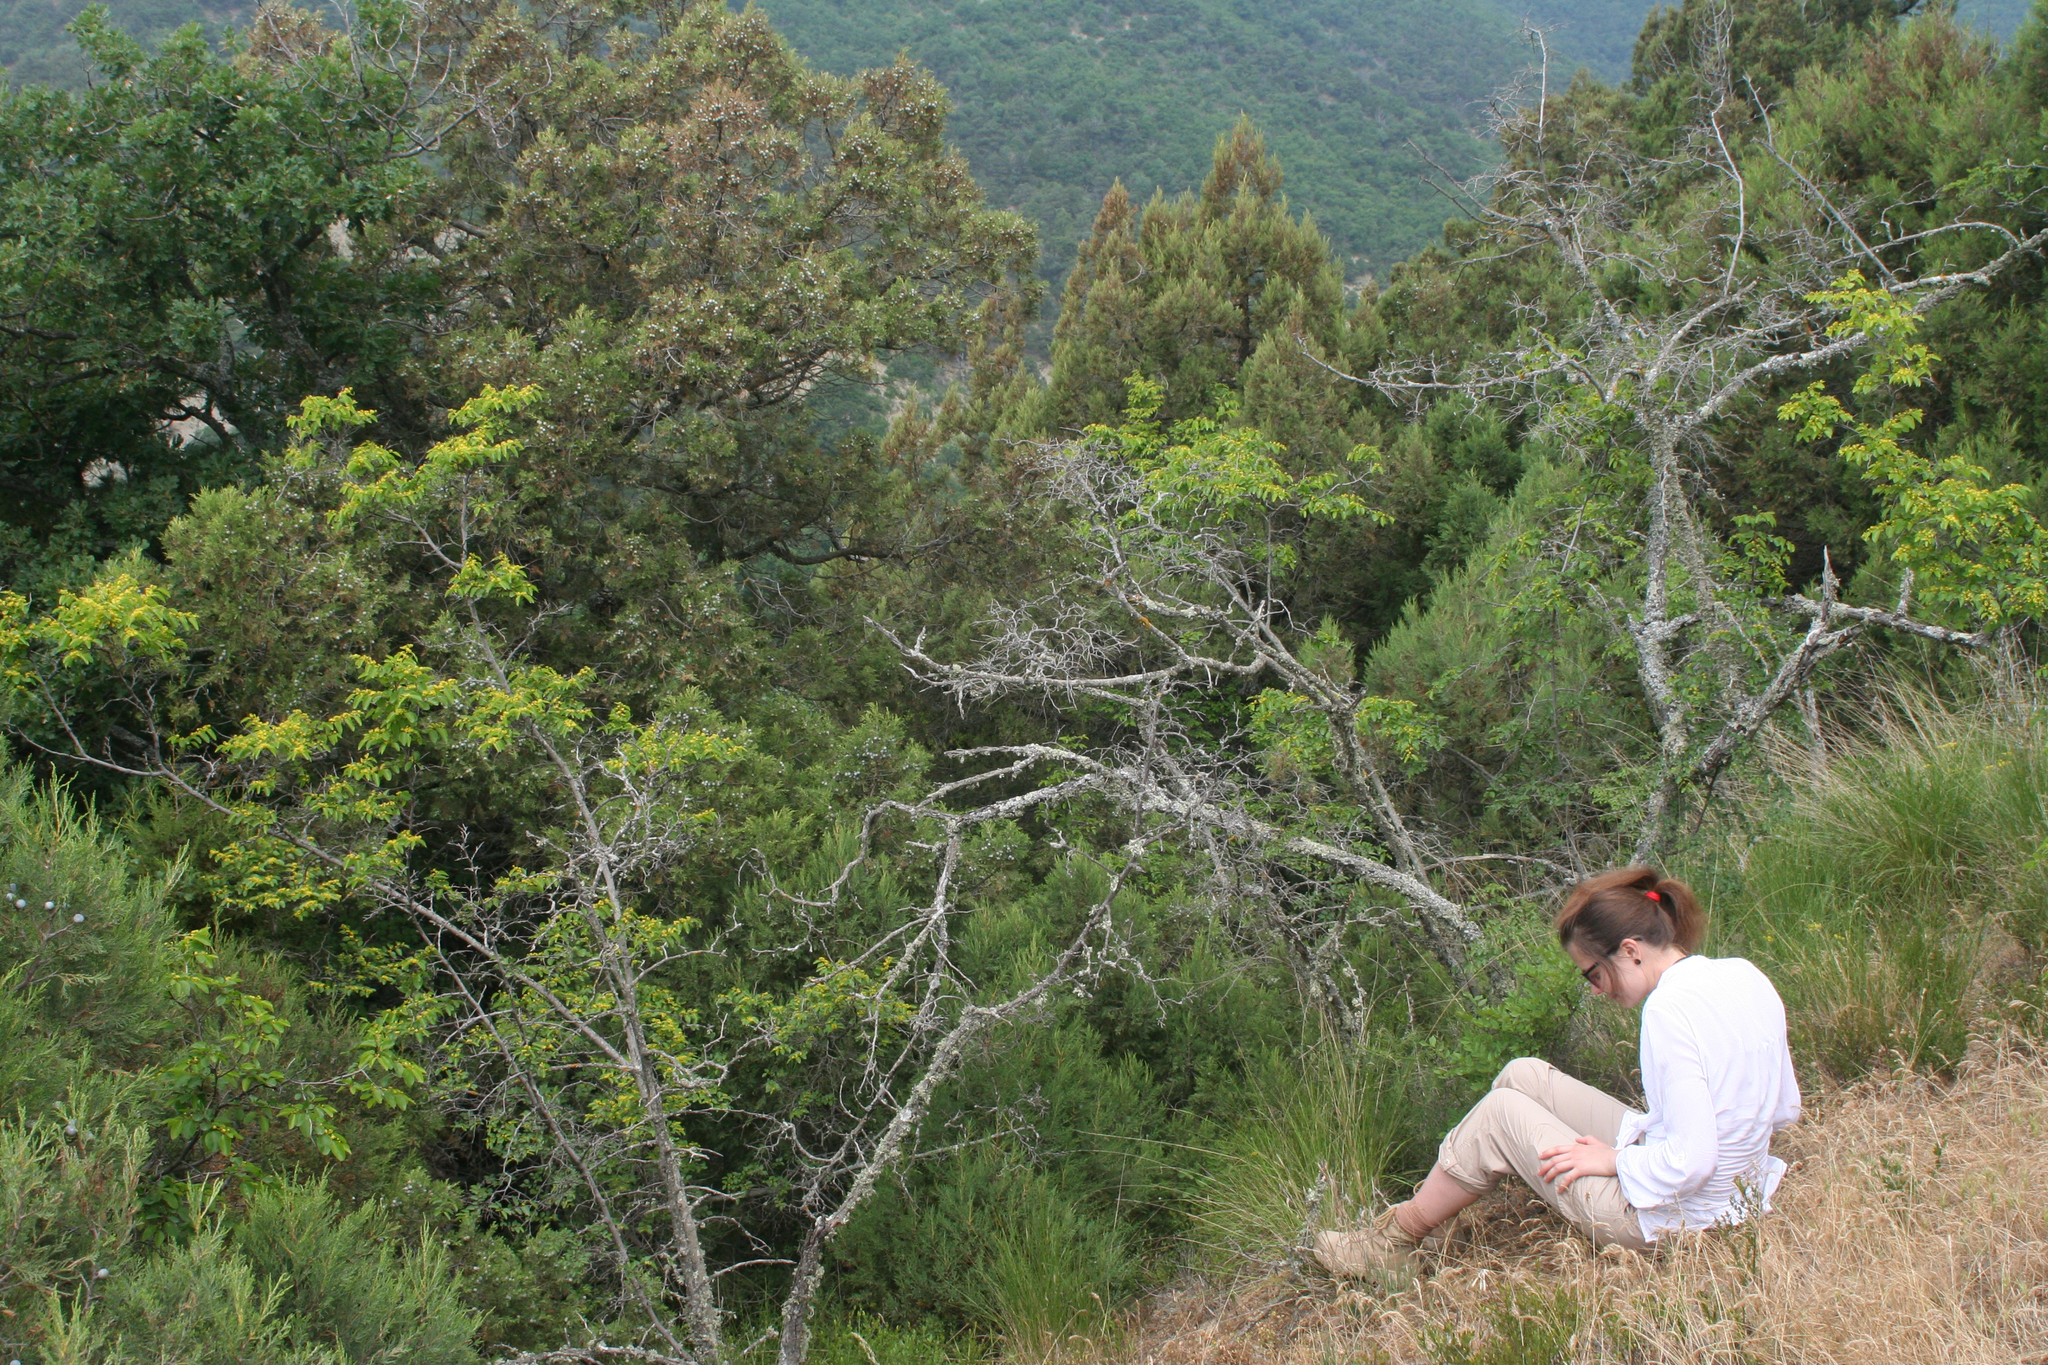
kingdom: Plantae
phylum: Tracheophyta
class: Magnoliopsida
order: Rosales
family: Rhamnaceae
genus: Paliurus
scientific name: Paliurus spina-christi
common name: Jeruselem thorn
